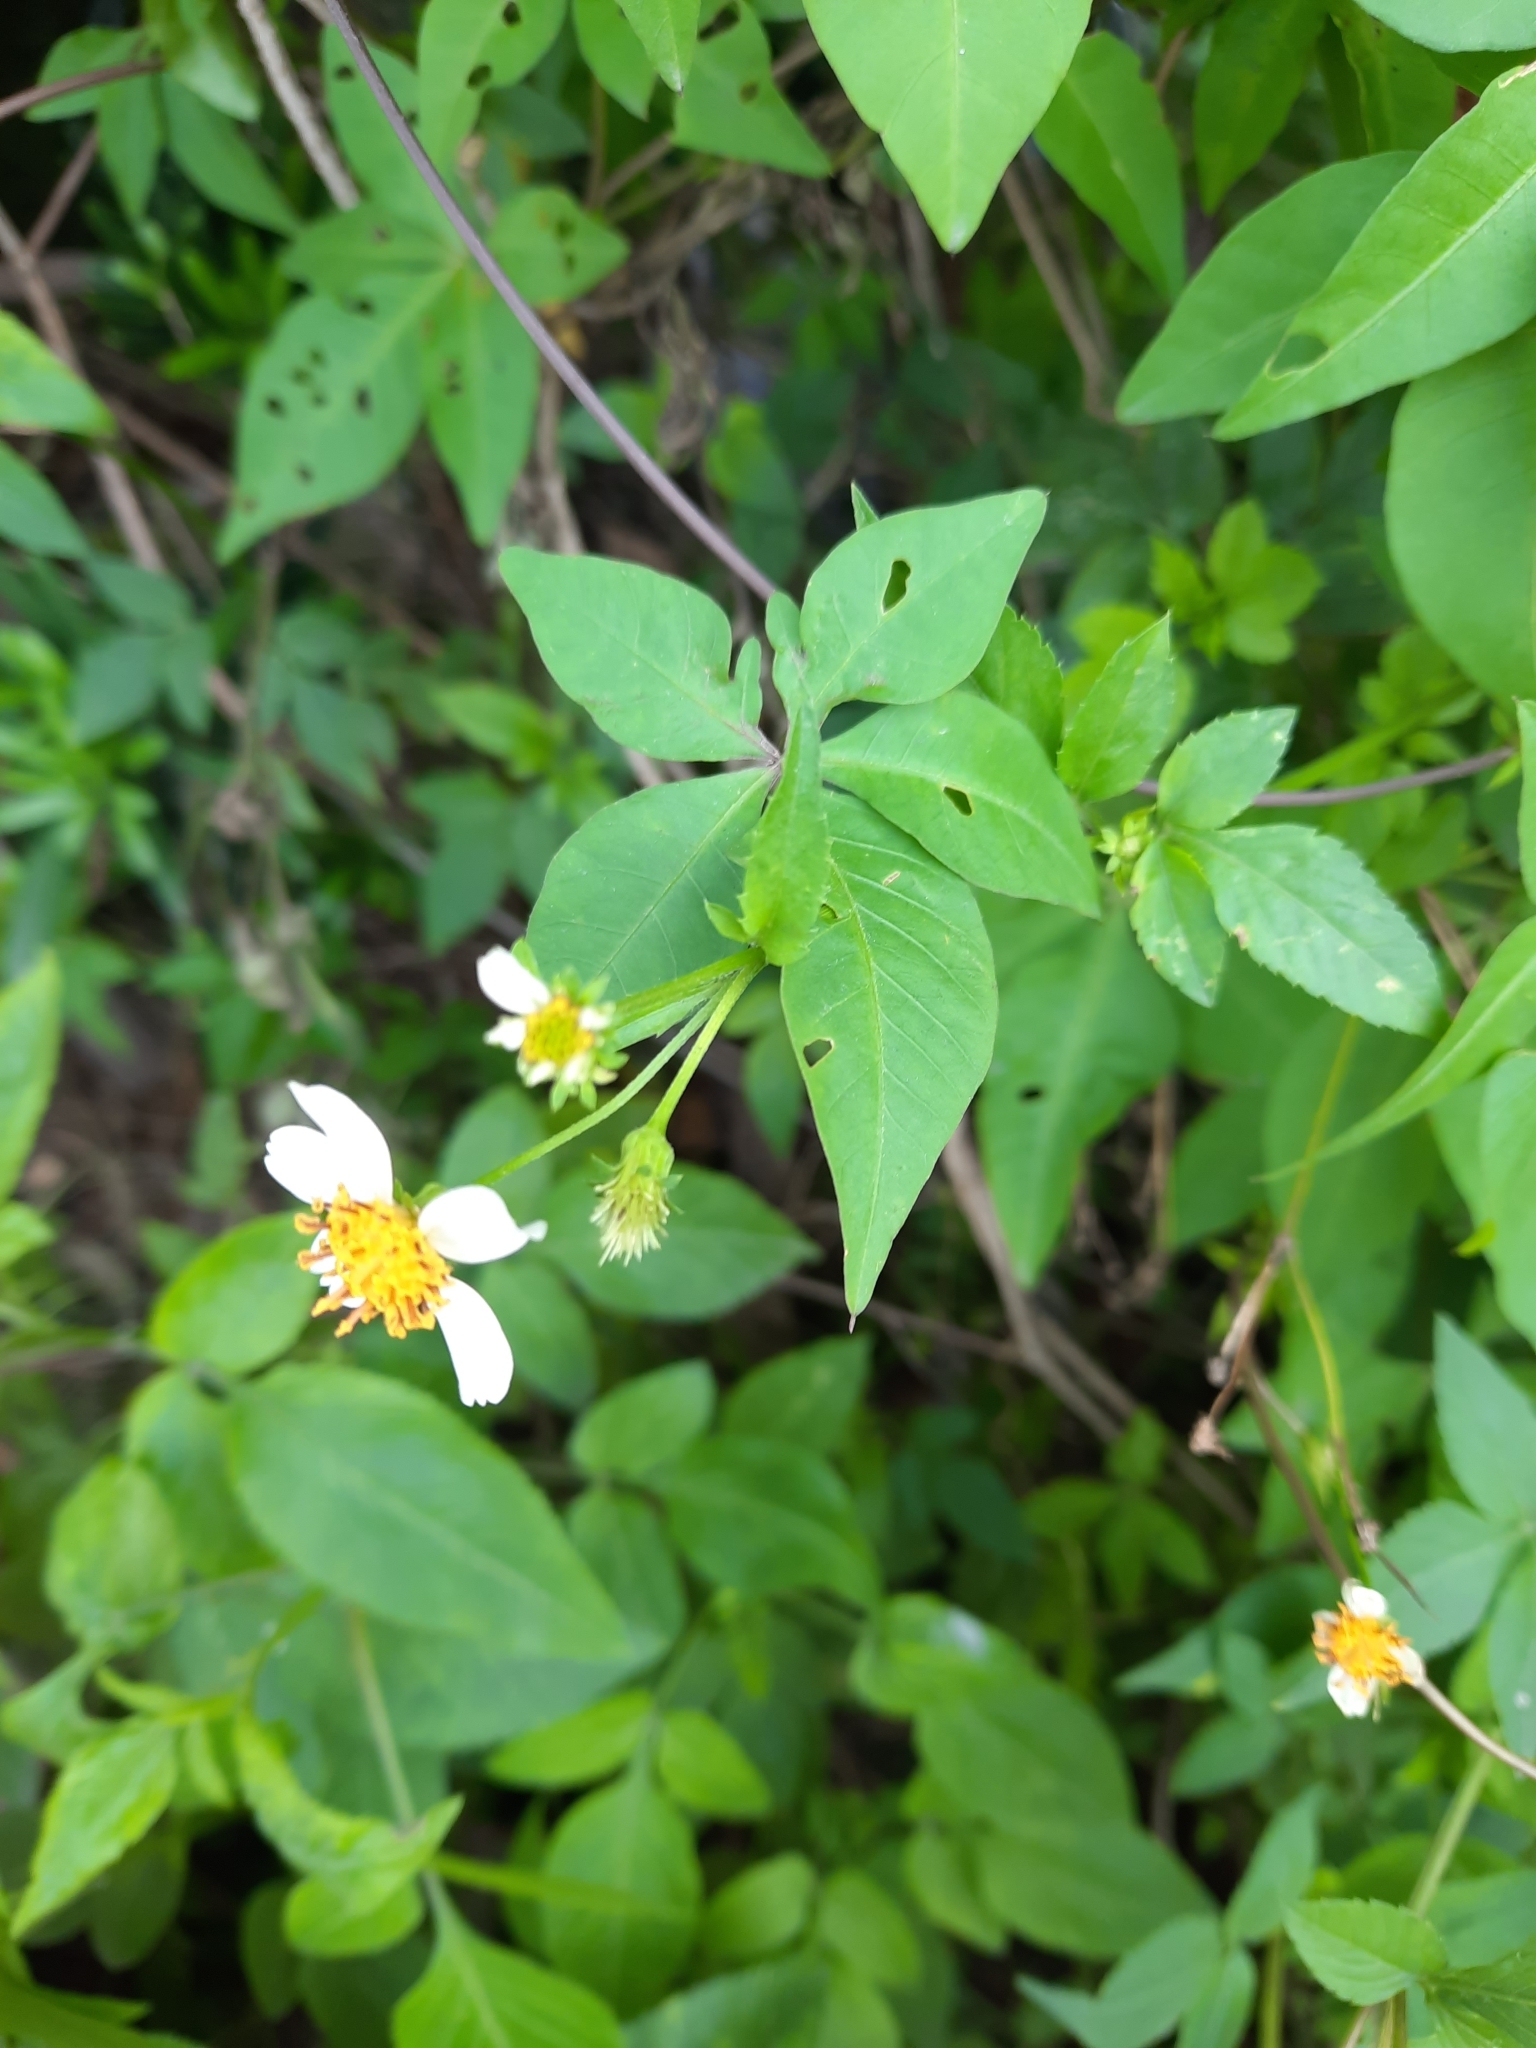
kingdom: Plantae
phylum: Tracheophyta
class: Magnoliopsida
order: Asterales
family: Asteraceae
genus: Bidens
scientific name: Bidens alba
